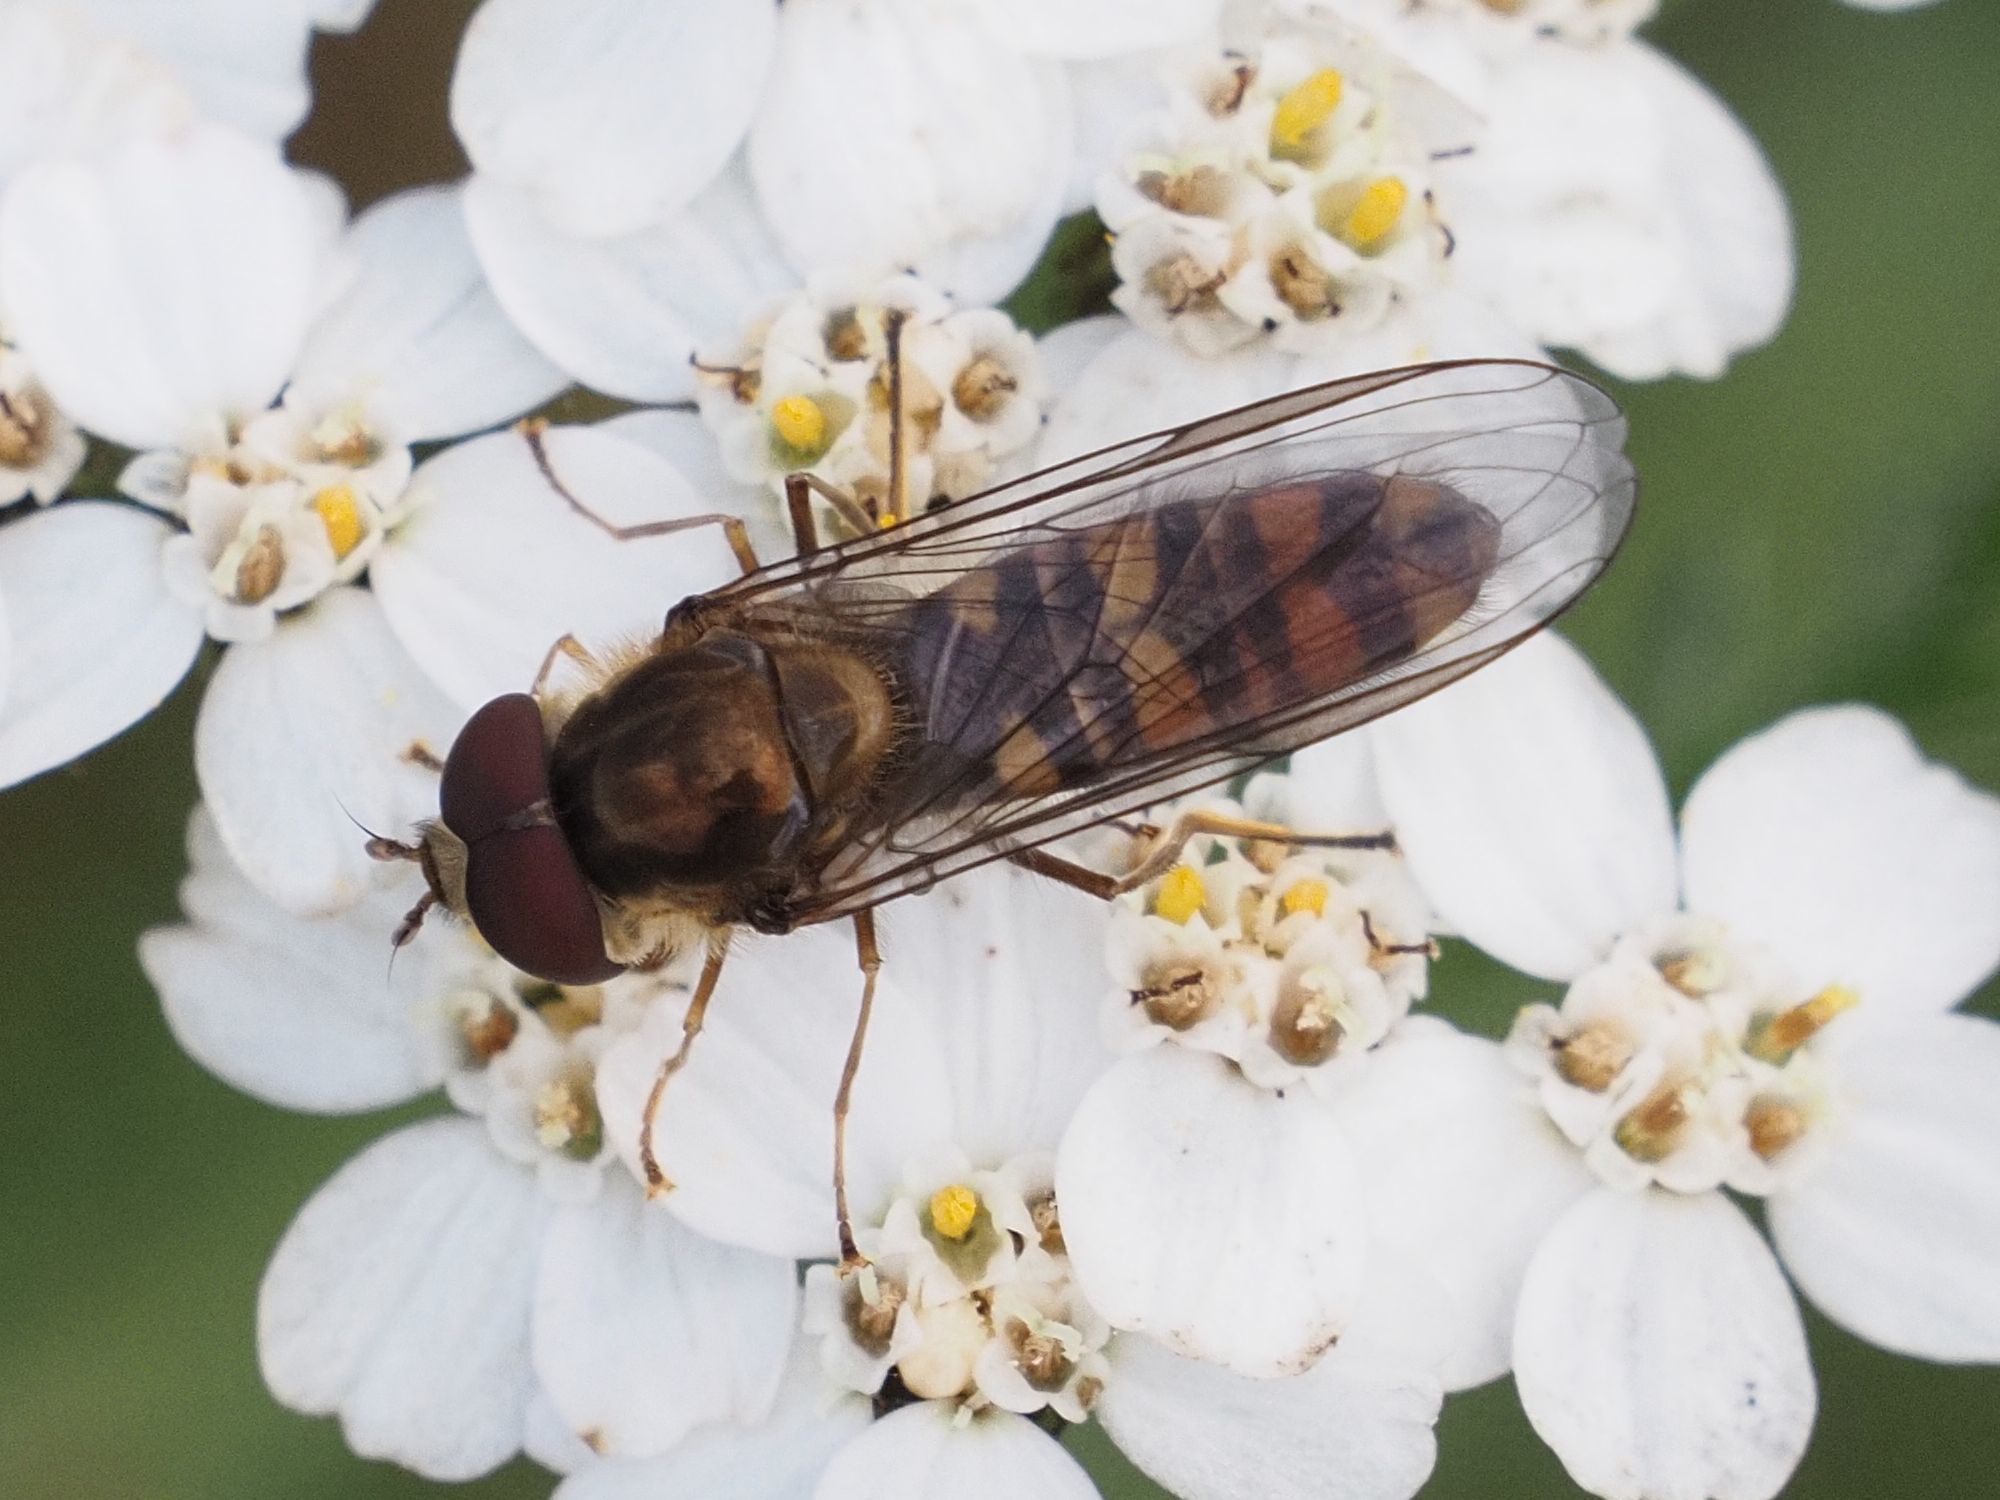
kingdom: Animalia
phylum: Arthropoda
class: Insecta
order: Diptera
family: Syrphidae
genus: Episyrphus
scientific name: Episyrphus balteatus
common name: Marmalade hoverfly
